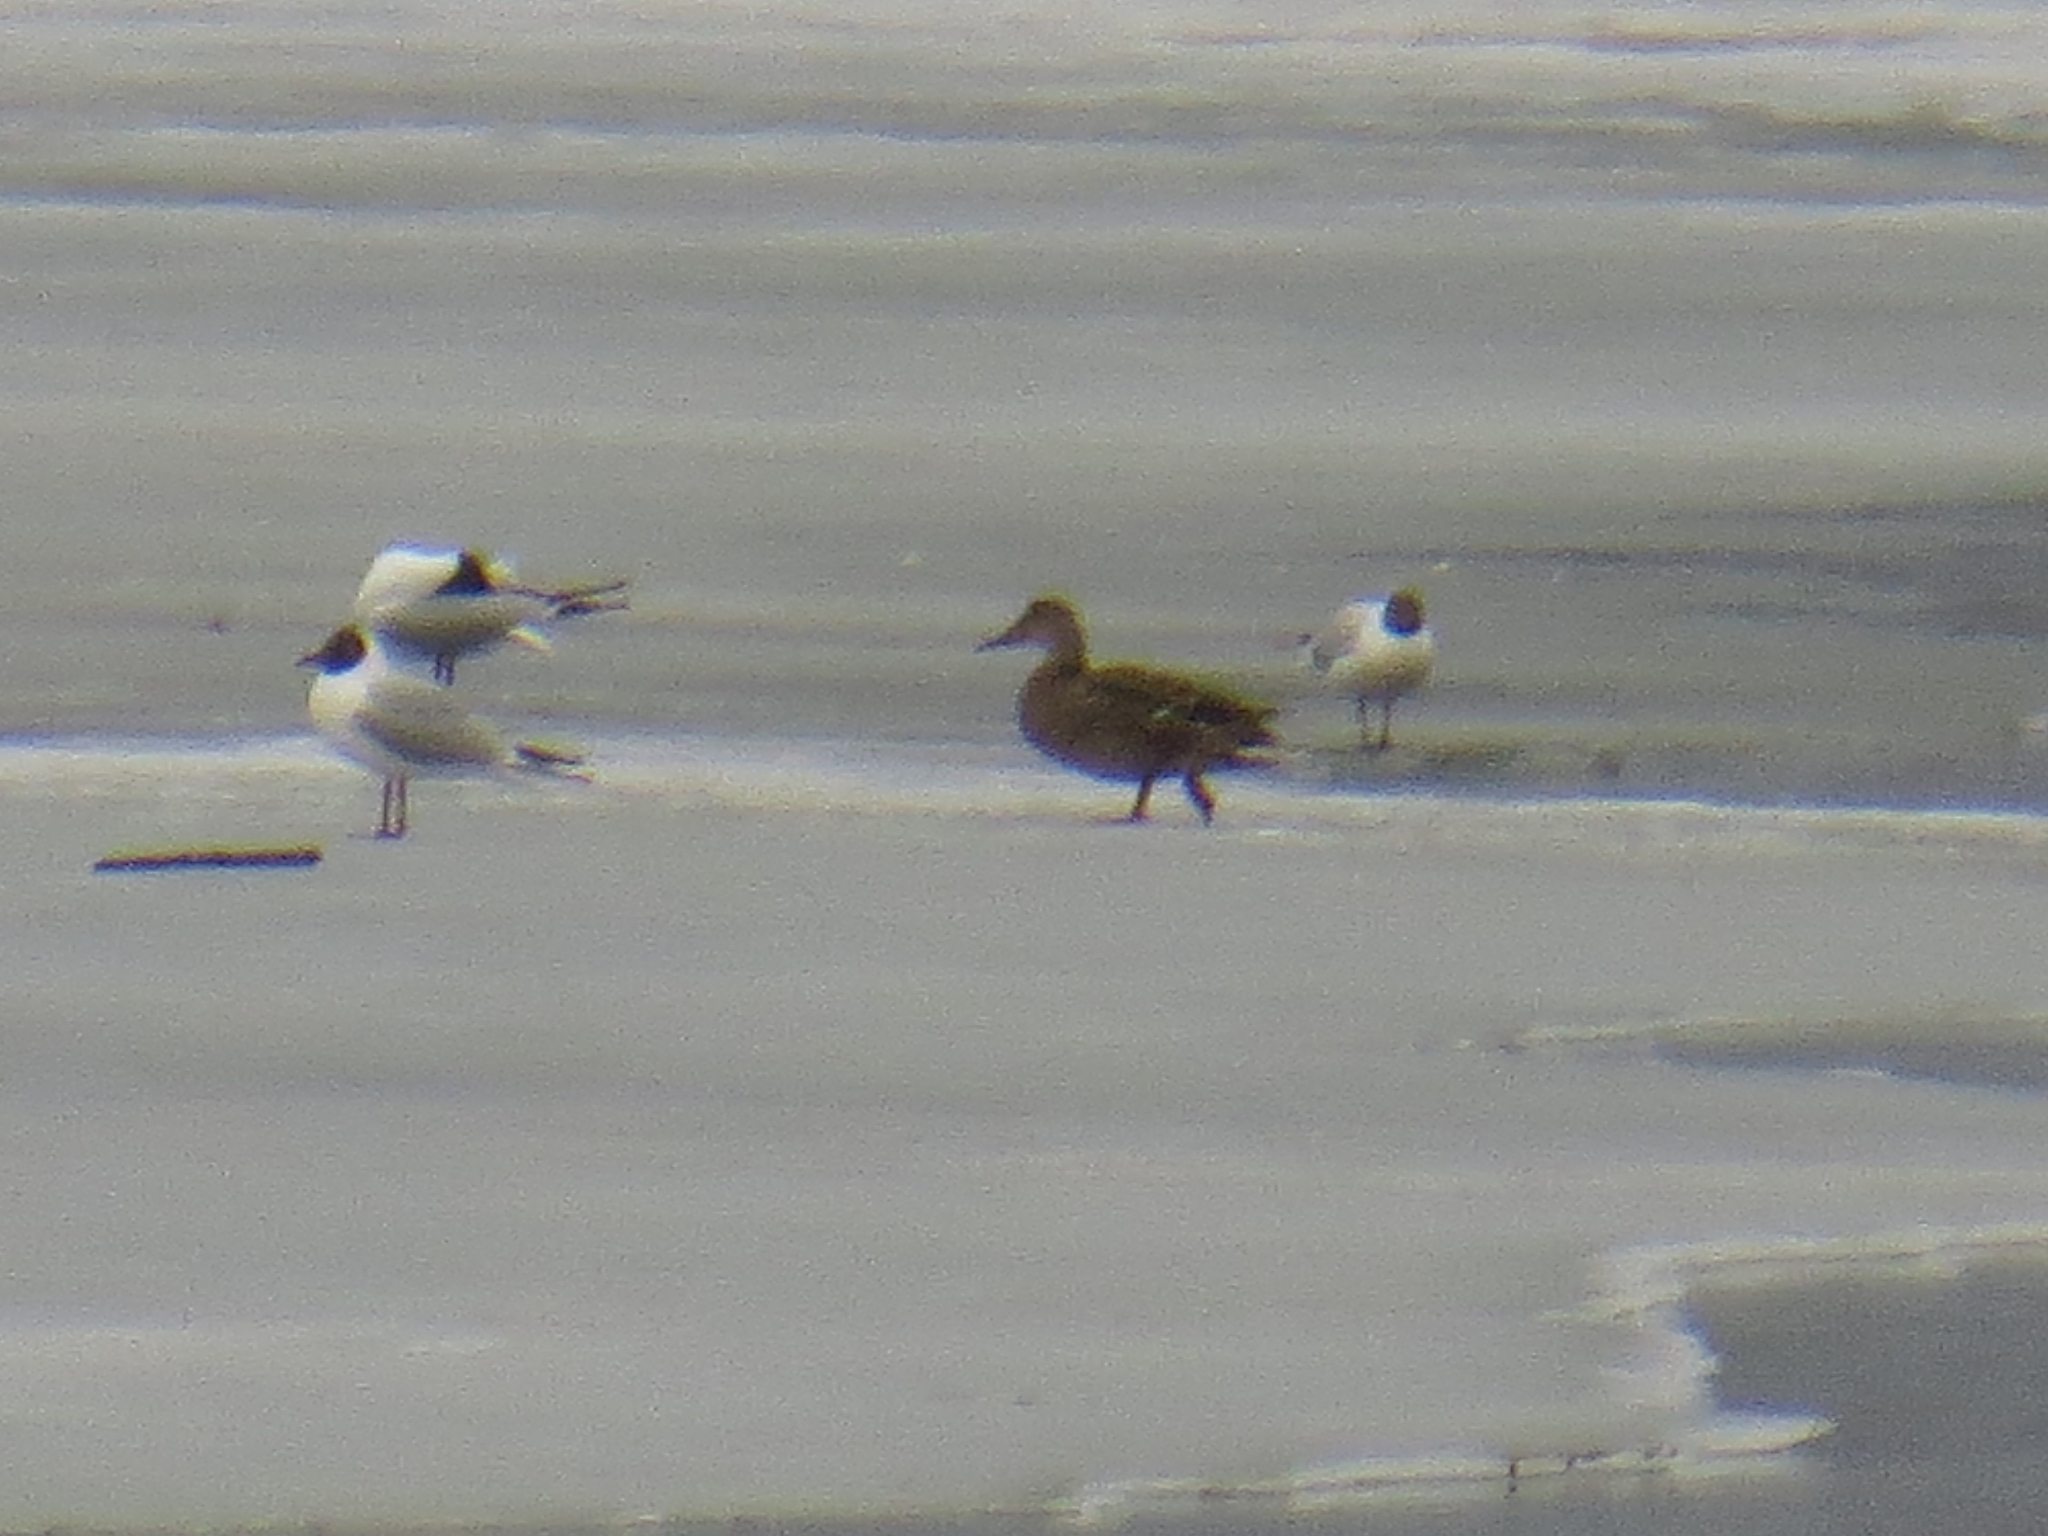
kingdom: Animalia
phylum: Chordata
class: Aves
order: Anseriformes
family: Anatidae
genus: Anas
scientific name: Anas platyrhynchos
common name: Mallard
